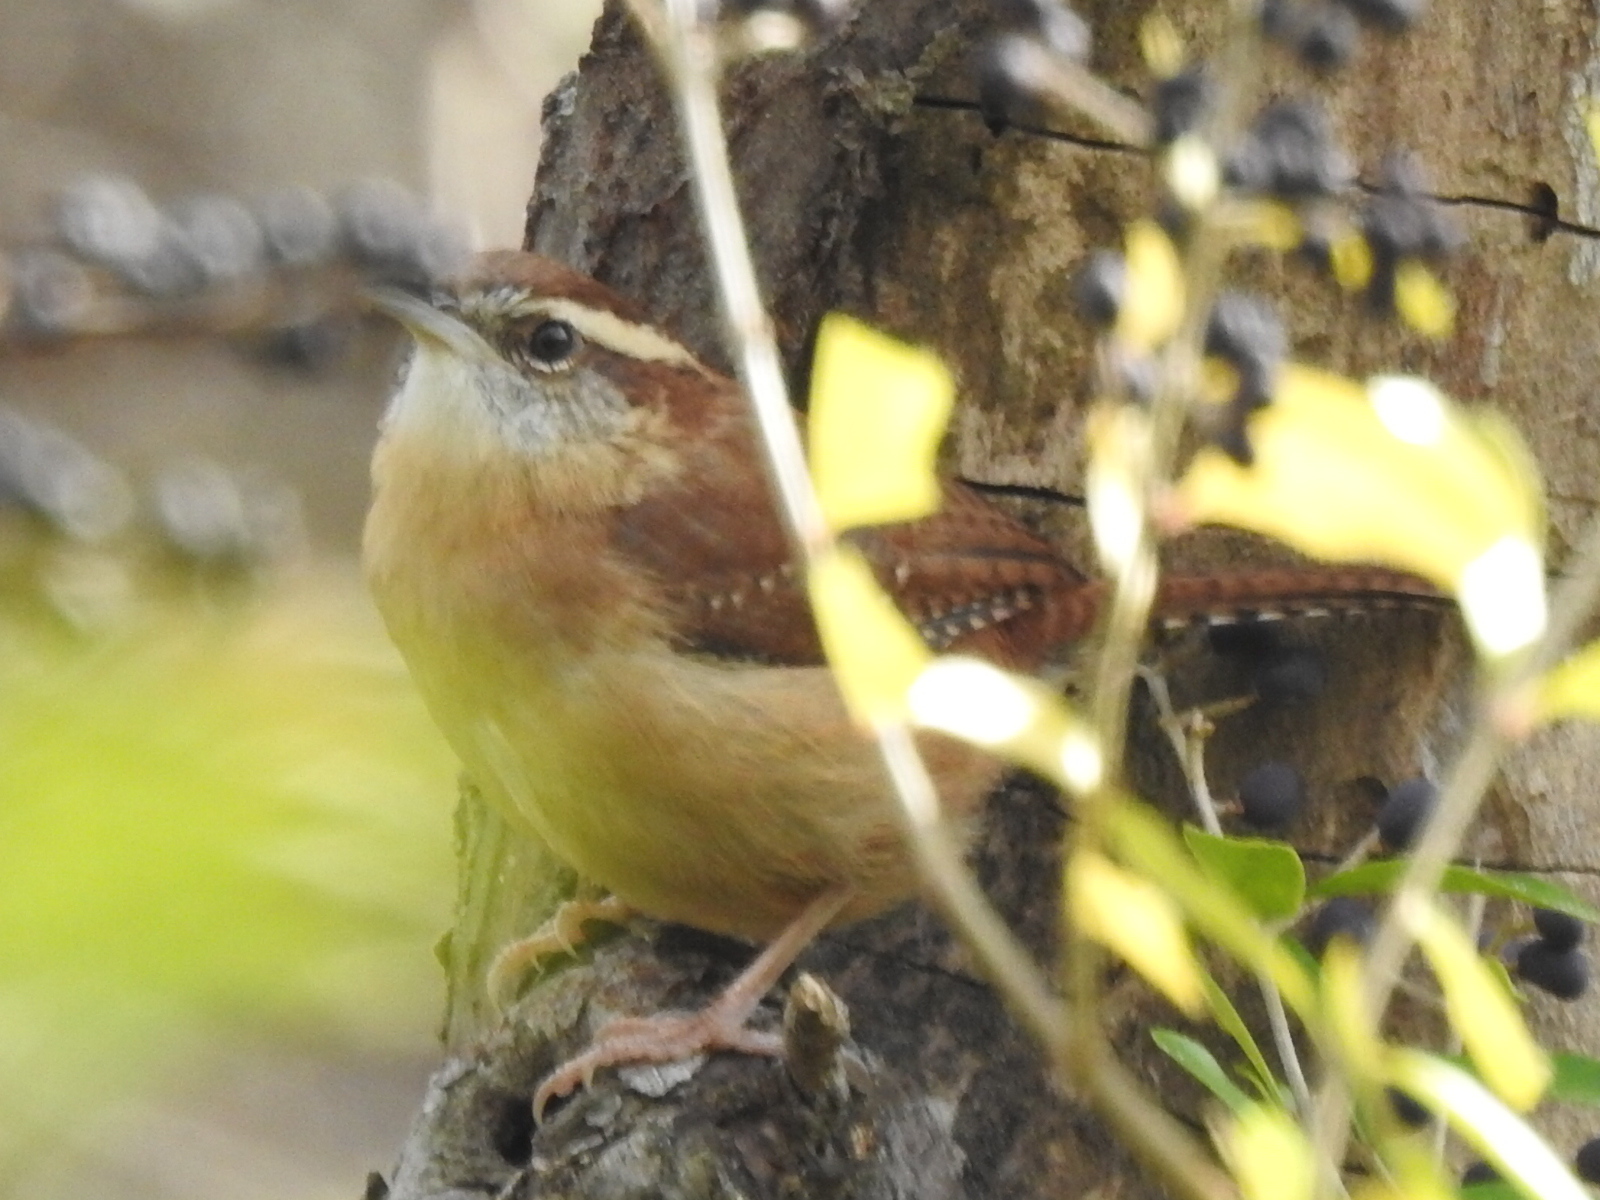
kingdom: Animalia
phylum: Chordata
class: Aves
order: Passeriformes
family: Troglodytidae
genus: Thryothorus
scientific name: Thryothorus ludovicianus
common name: Carolina wren
